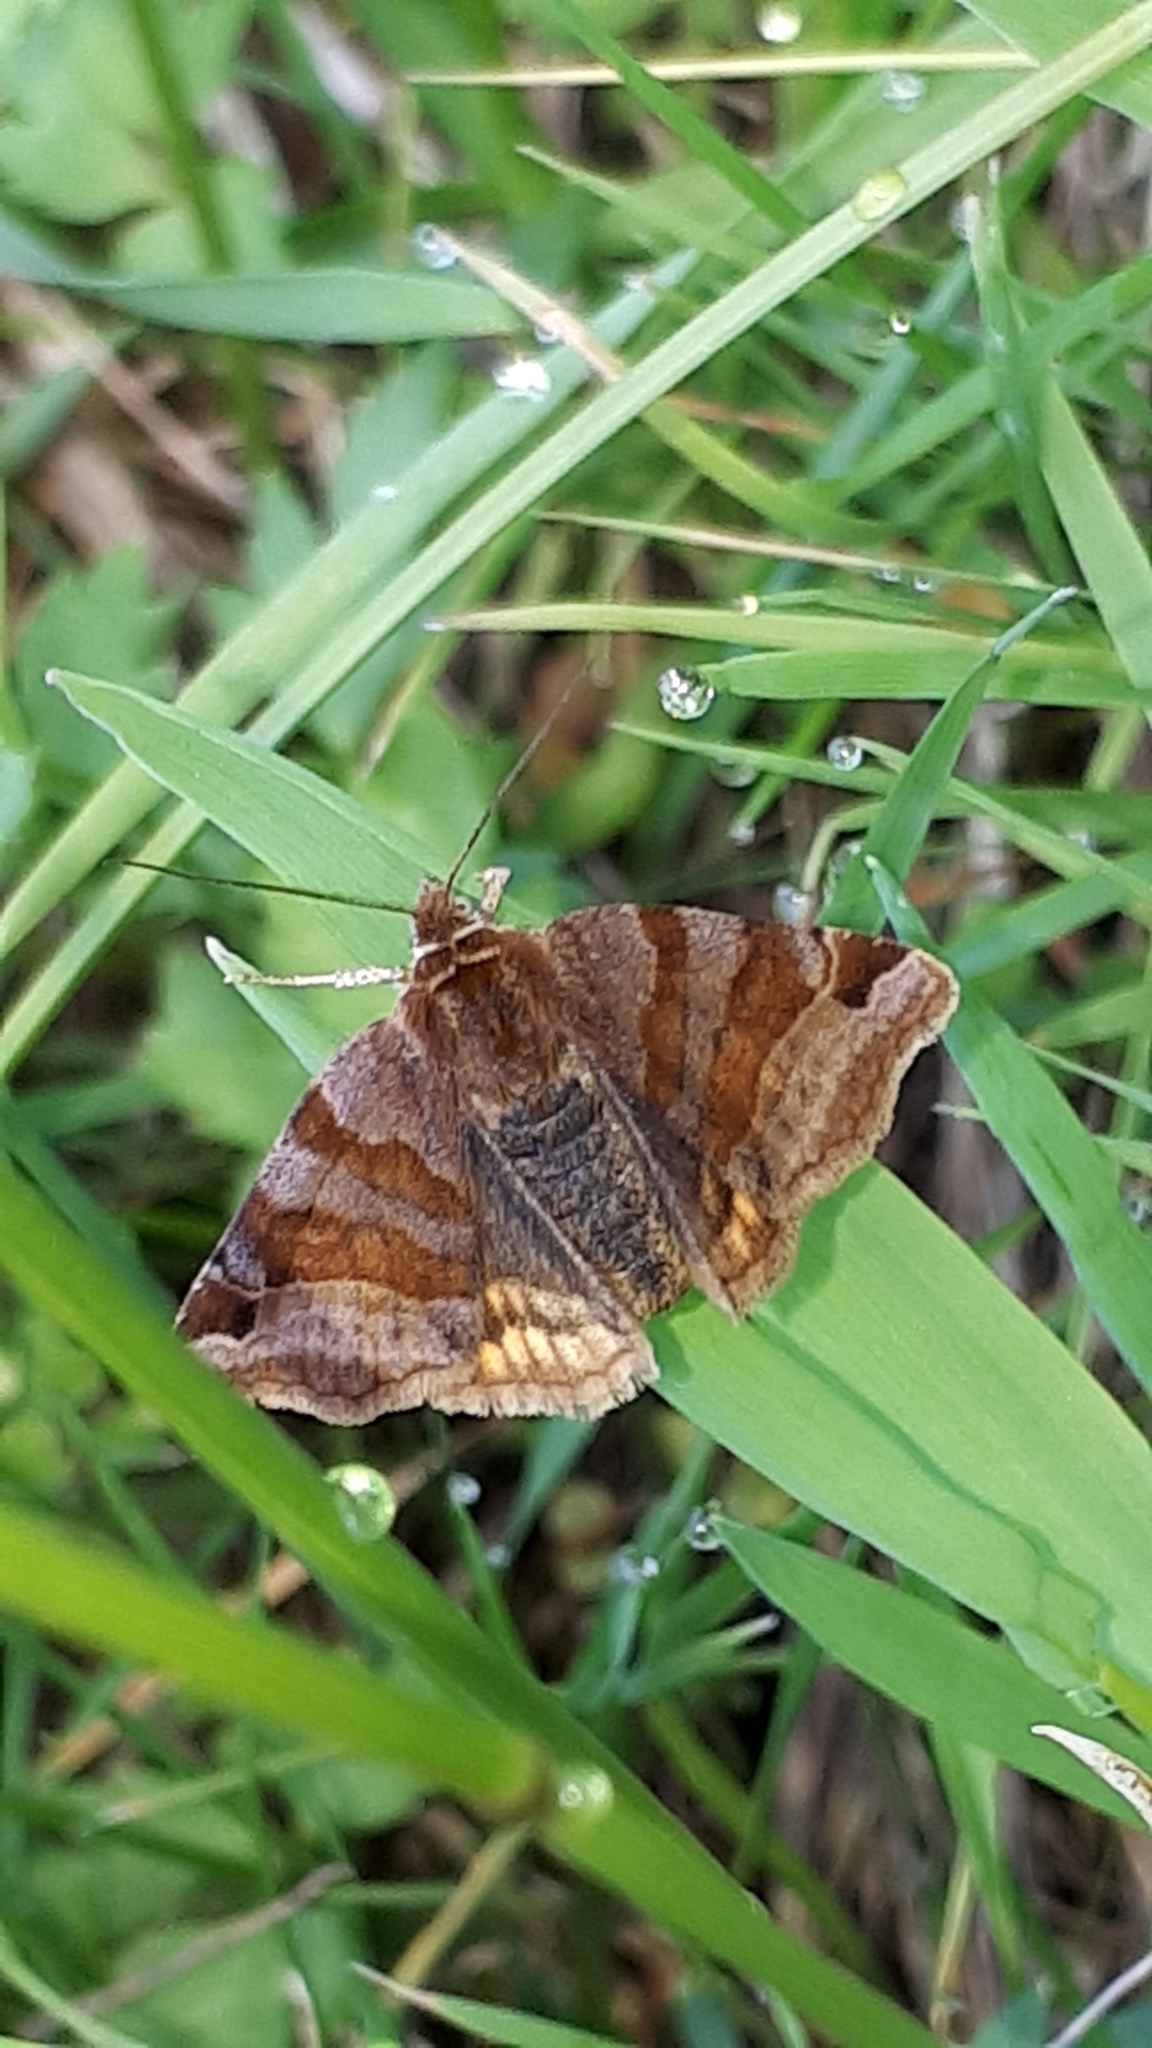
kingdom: Animalia
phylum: Arthropoda
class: Insecta
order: Lepidoptera
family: Erebidae
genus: Euclidia
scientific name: Euclidia glyphica
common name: Burnet companion
